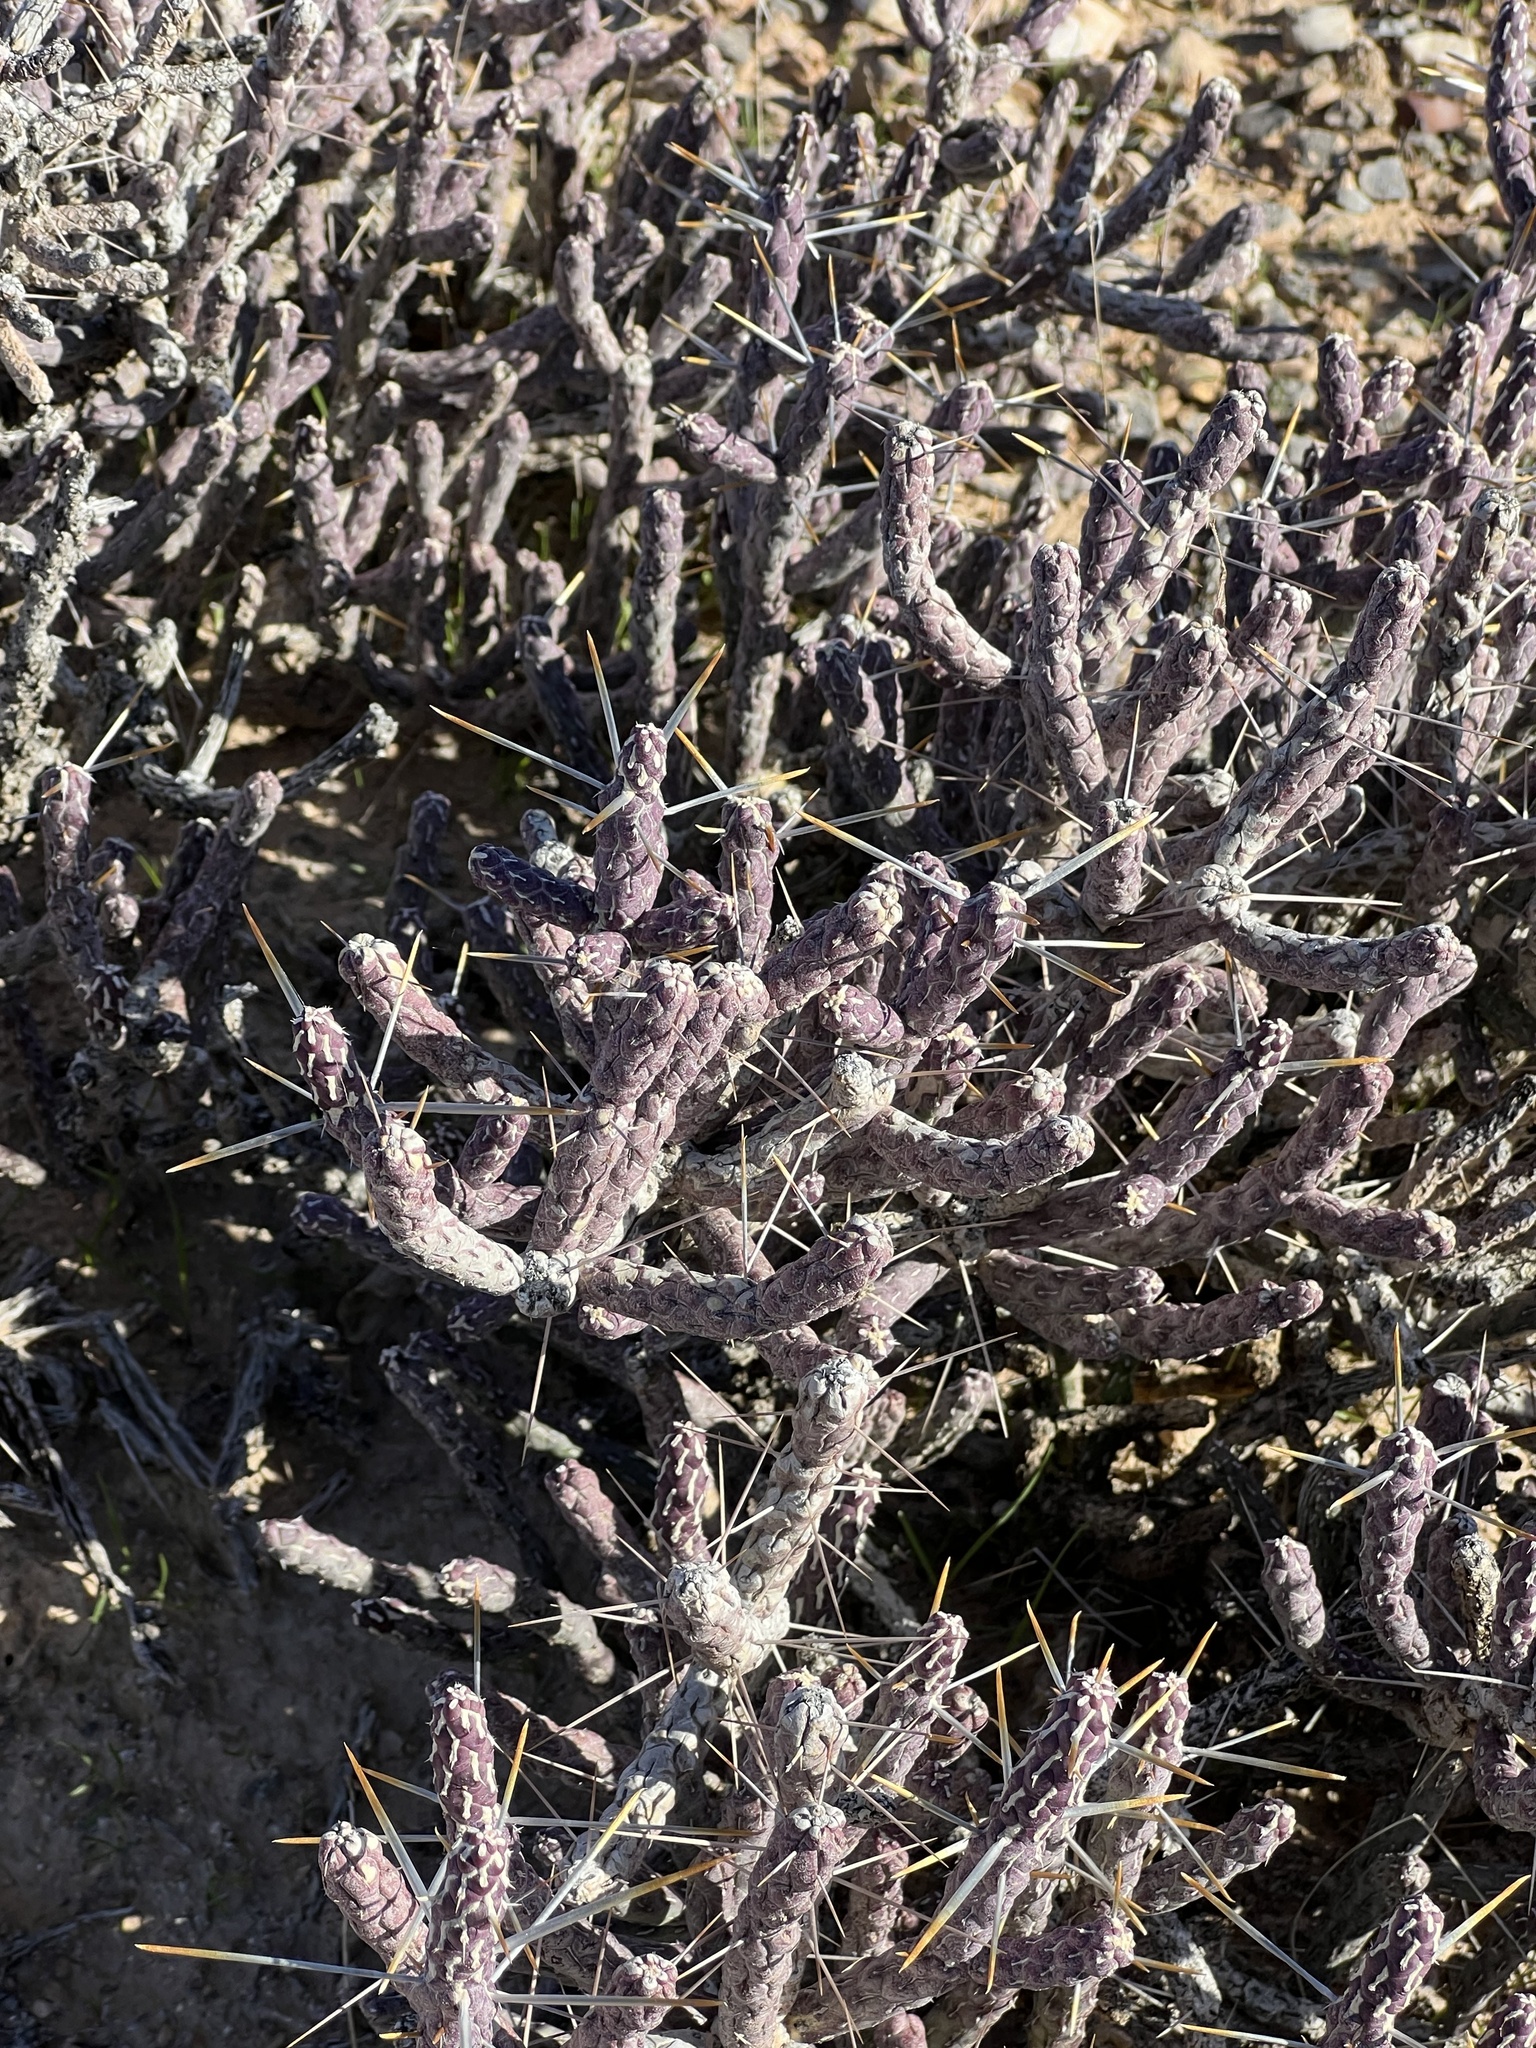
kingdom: Plantae
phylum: Tracheophyta
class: Magnoliopsida
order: Caryophyllales
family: Cactaceae
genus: Cylindropuntia
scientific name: Cylindropuntia ramosissima
